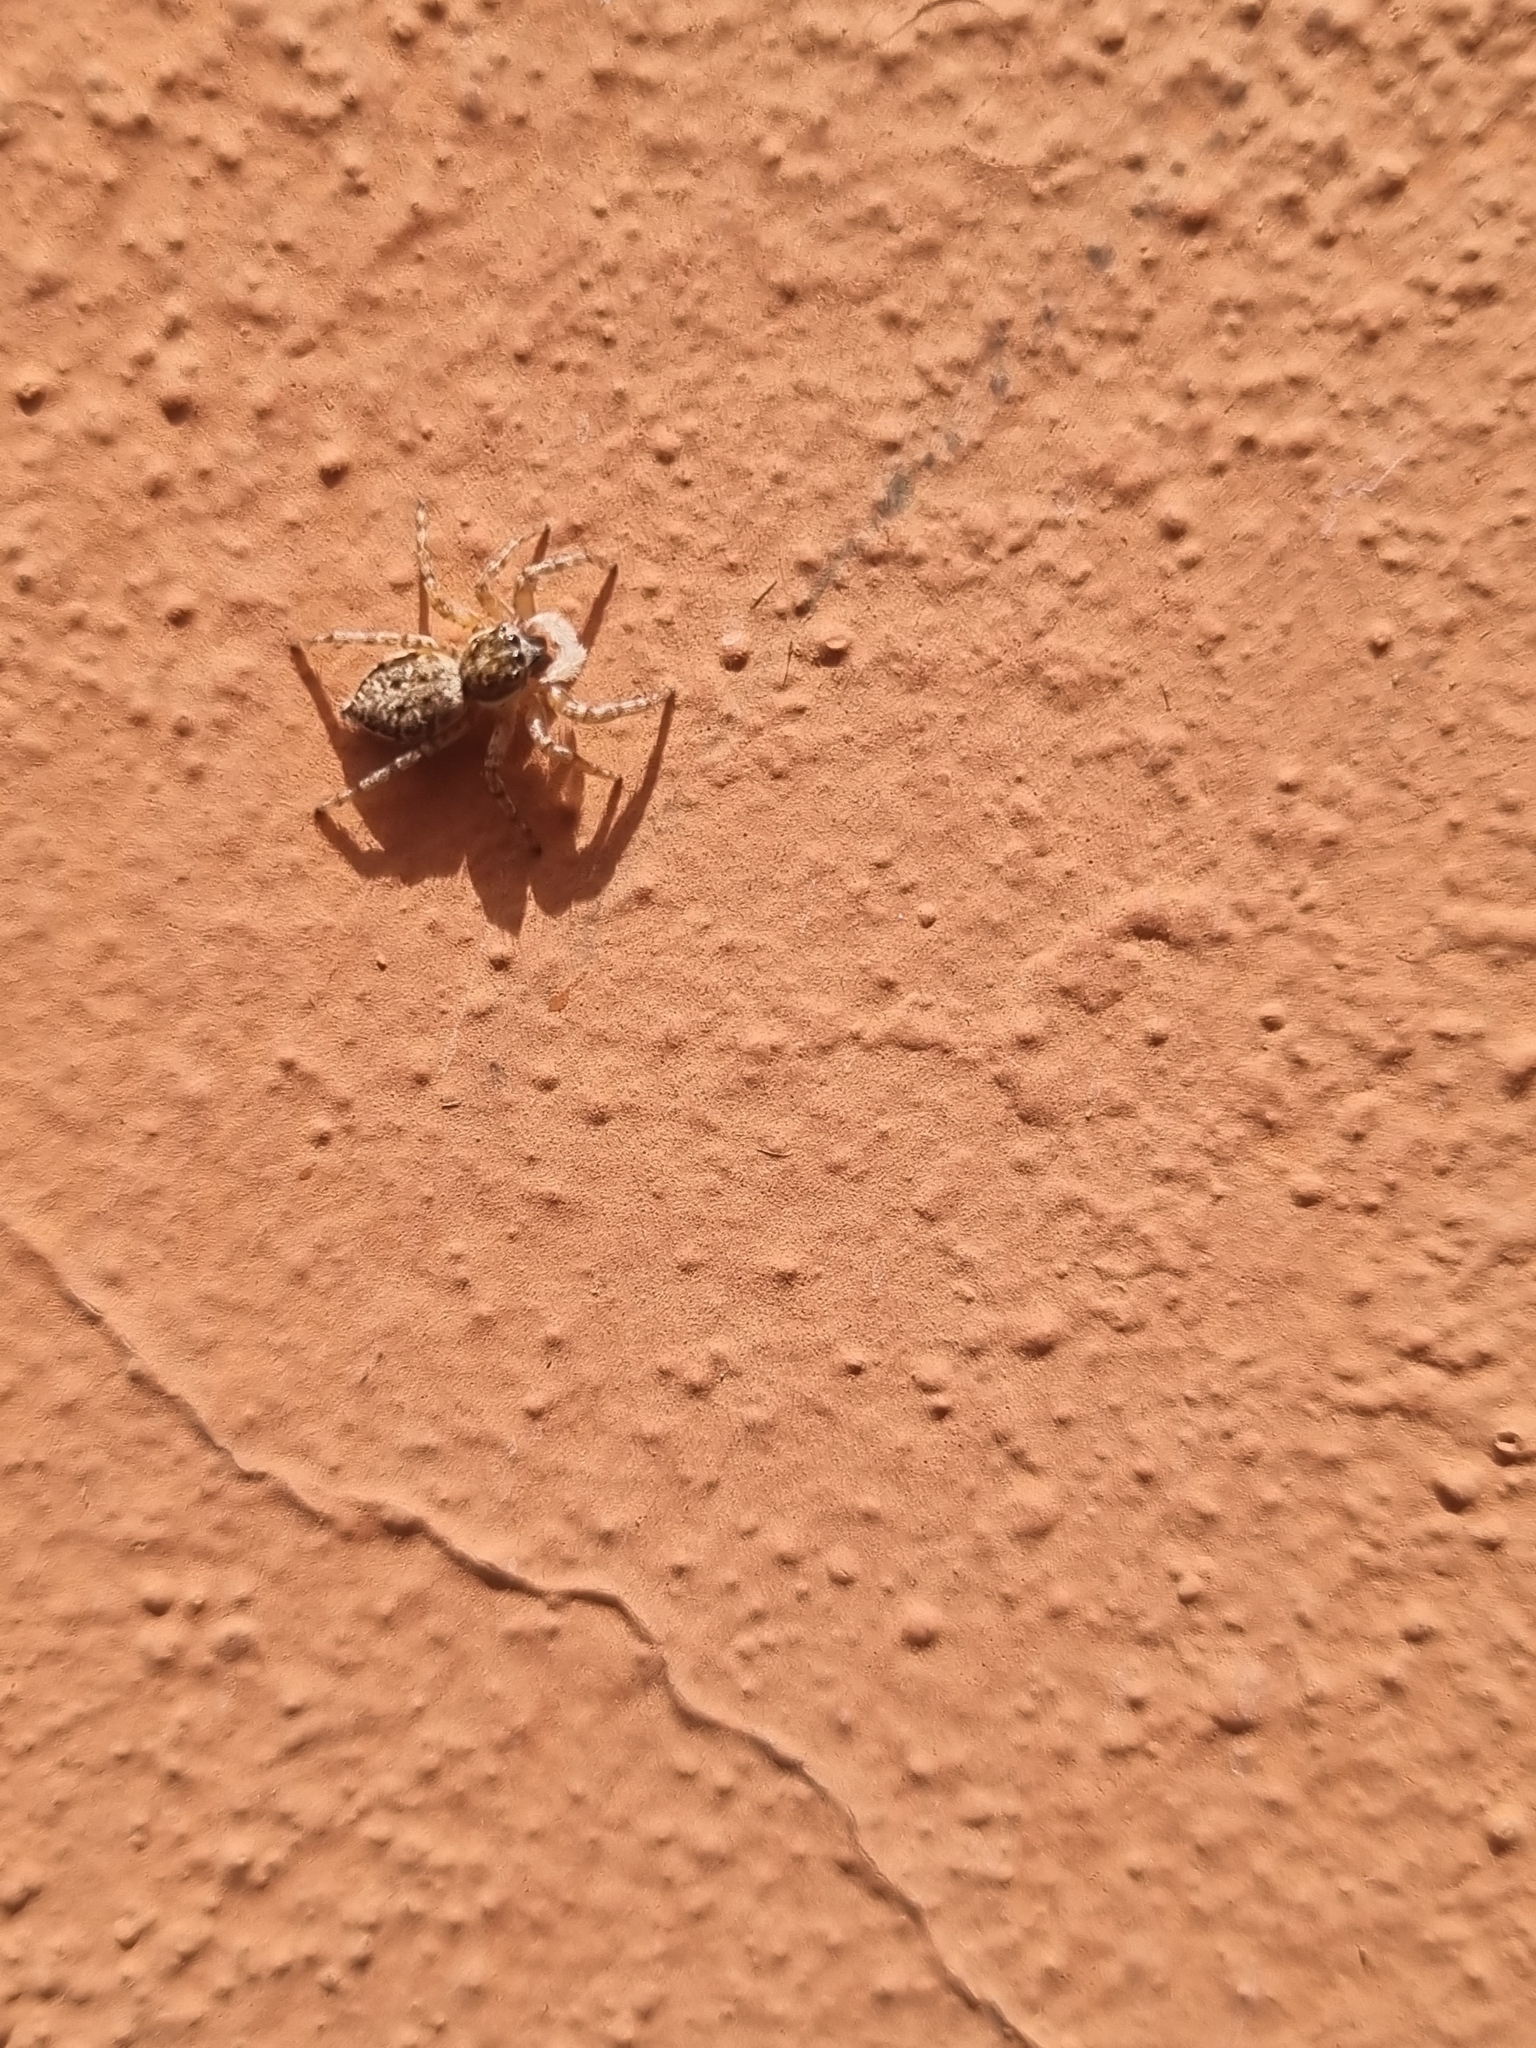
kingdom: Animalia
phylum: Arthropoda
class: Arachnida
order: Araneae
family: Salticidae
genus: Menemerus
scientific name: Menemerus semilimbatus
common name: Jumping spider
